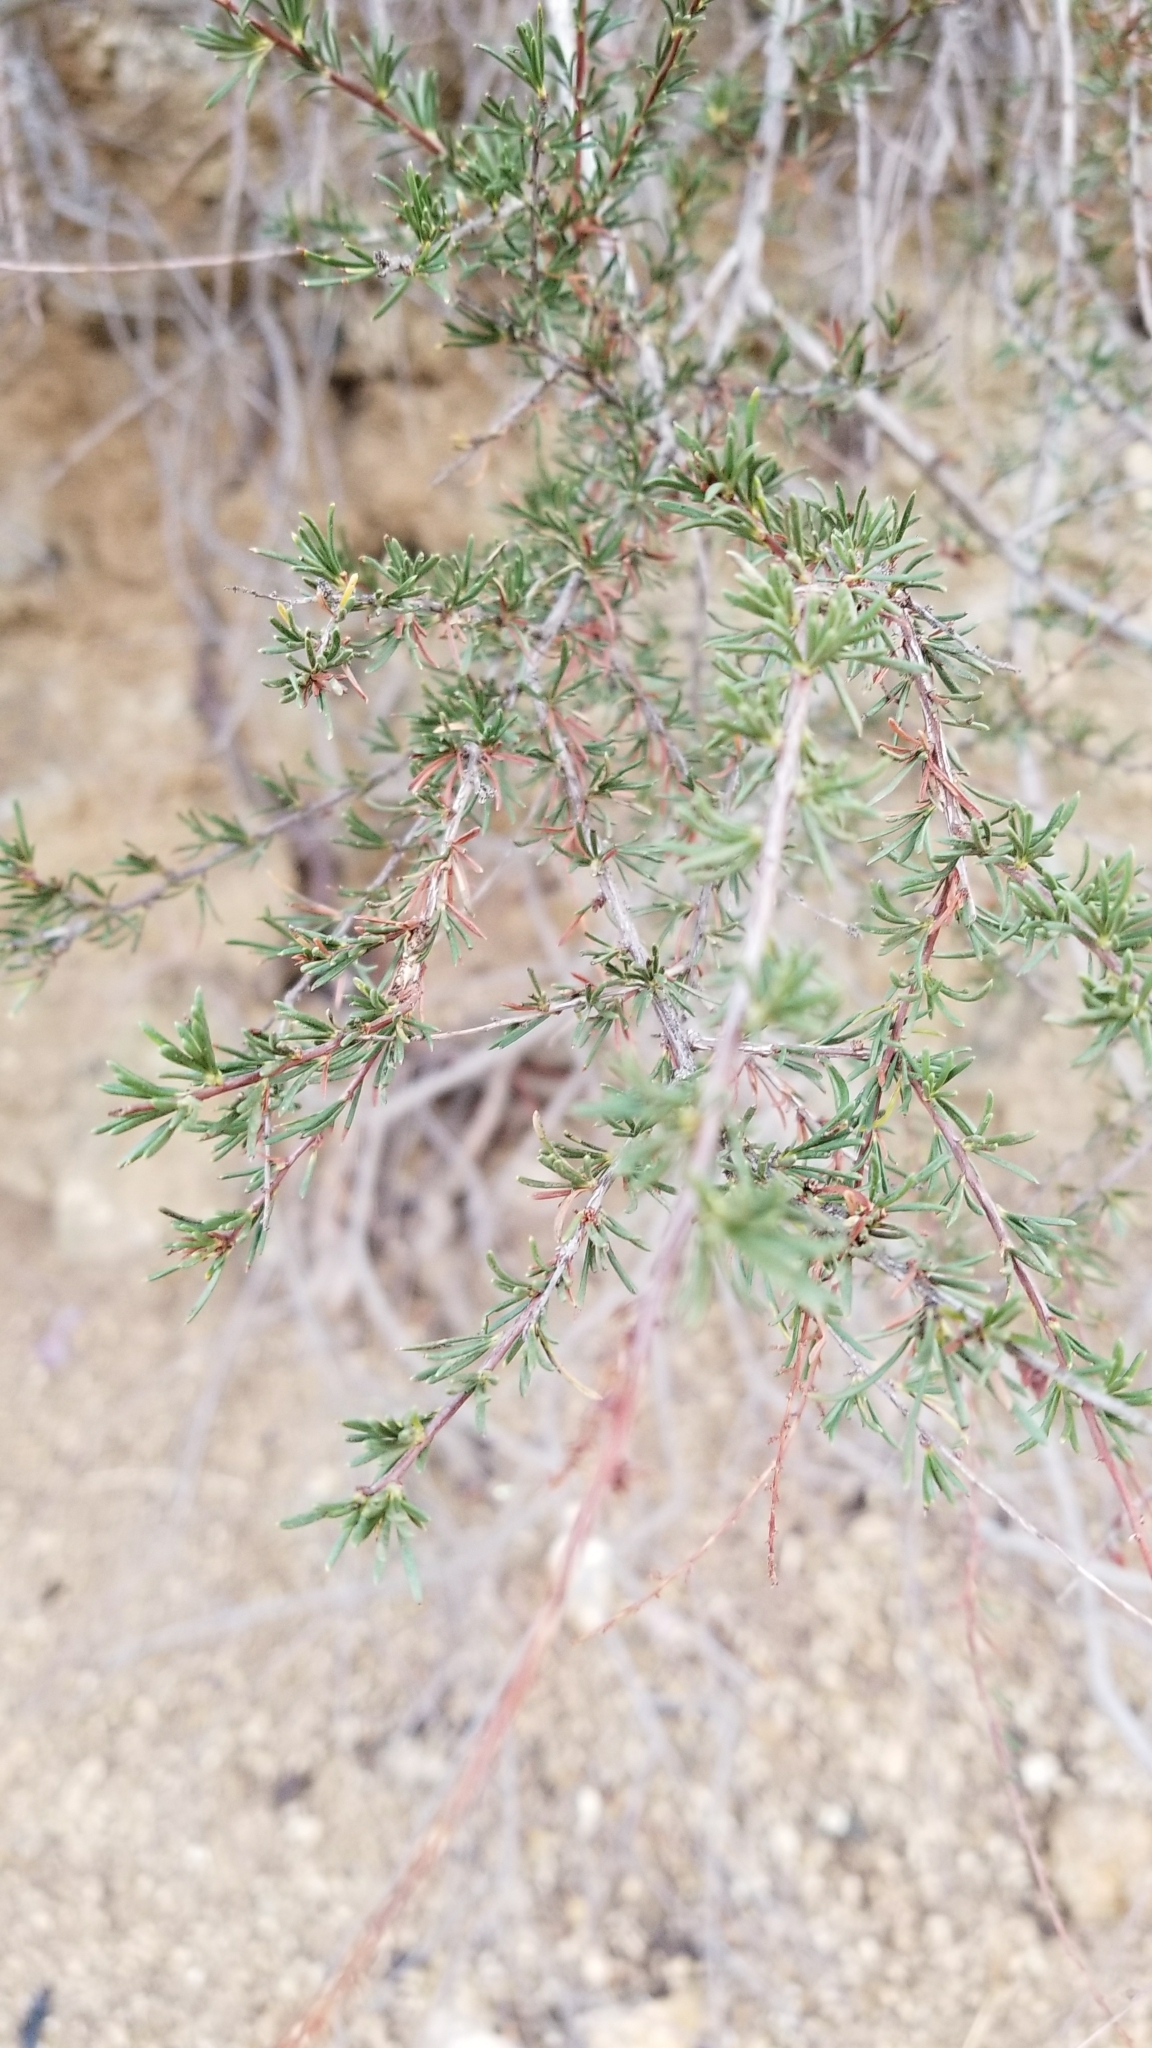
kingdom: Plantae
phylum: Tracheophyta
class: Magnoliopsida
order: Rosales
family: Rosaceae
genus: Adenostoma
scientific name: Adenostoma fasciculatum
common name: Chamise
